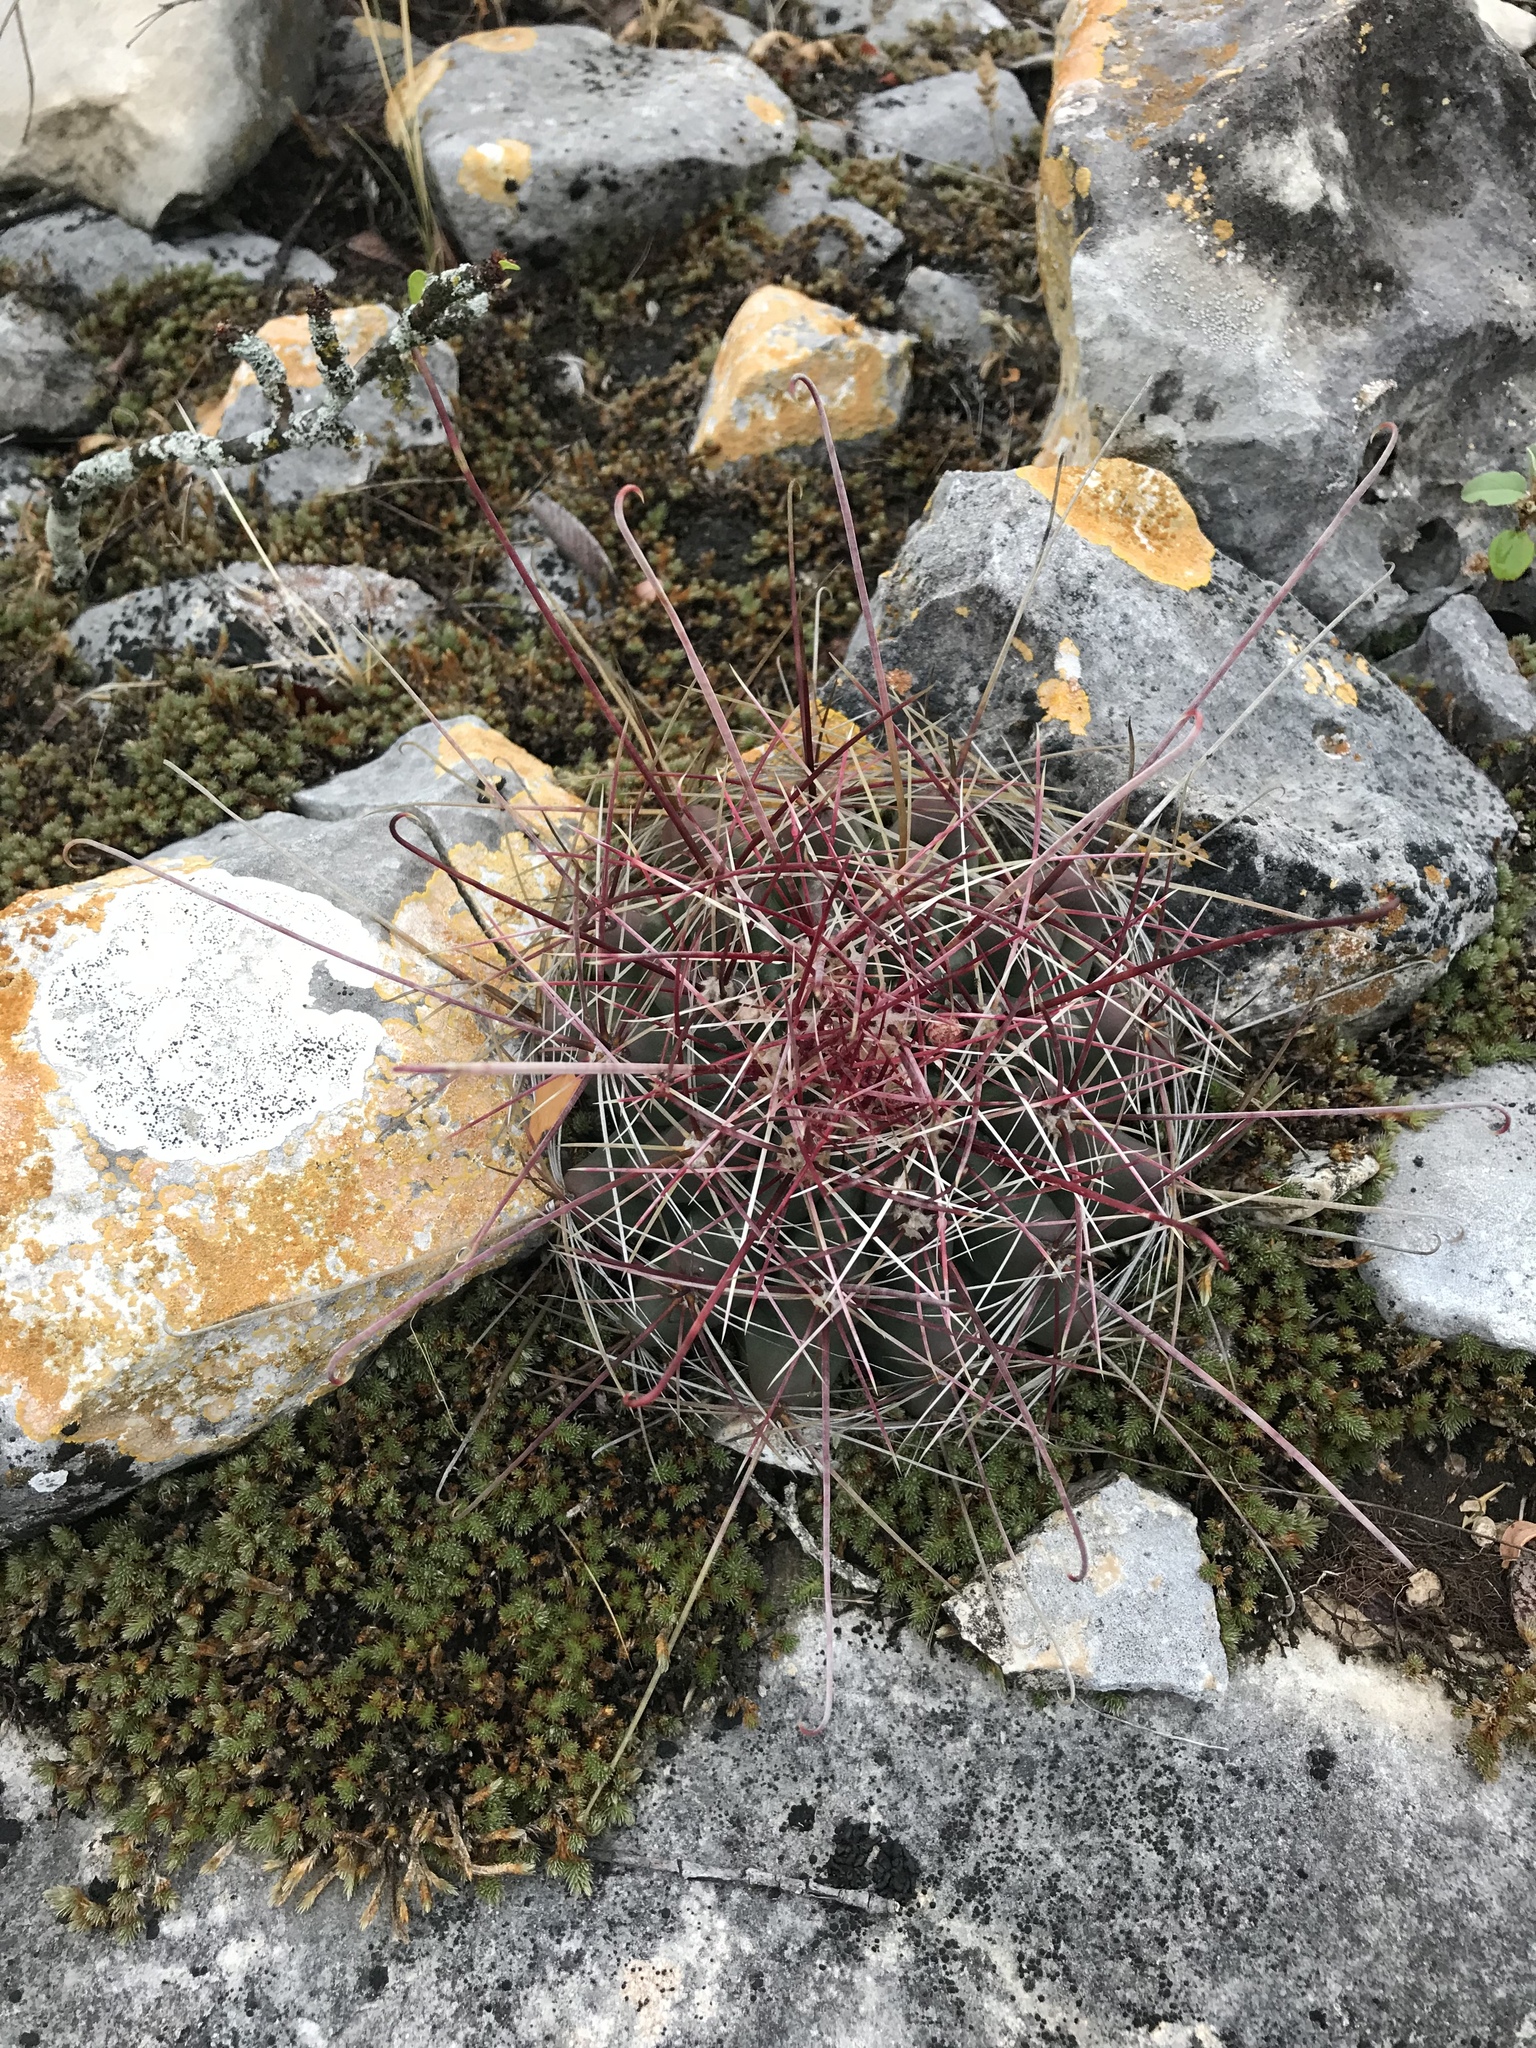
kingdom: Plantae
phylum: Tracheophyta
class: Magnoliopsida
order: Caryophyllales
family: Cactaceae
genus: Bisnaga
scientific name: Bisnaga hamatacantha
